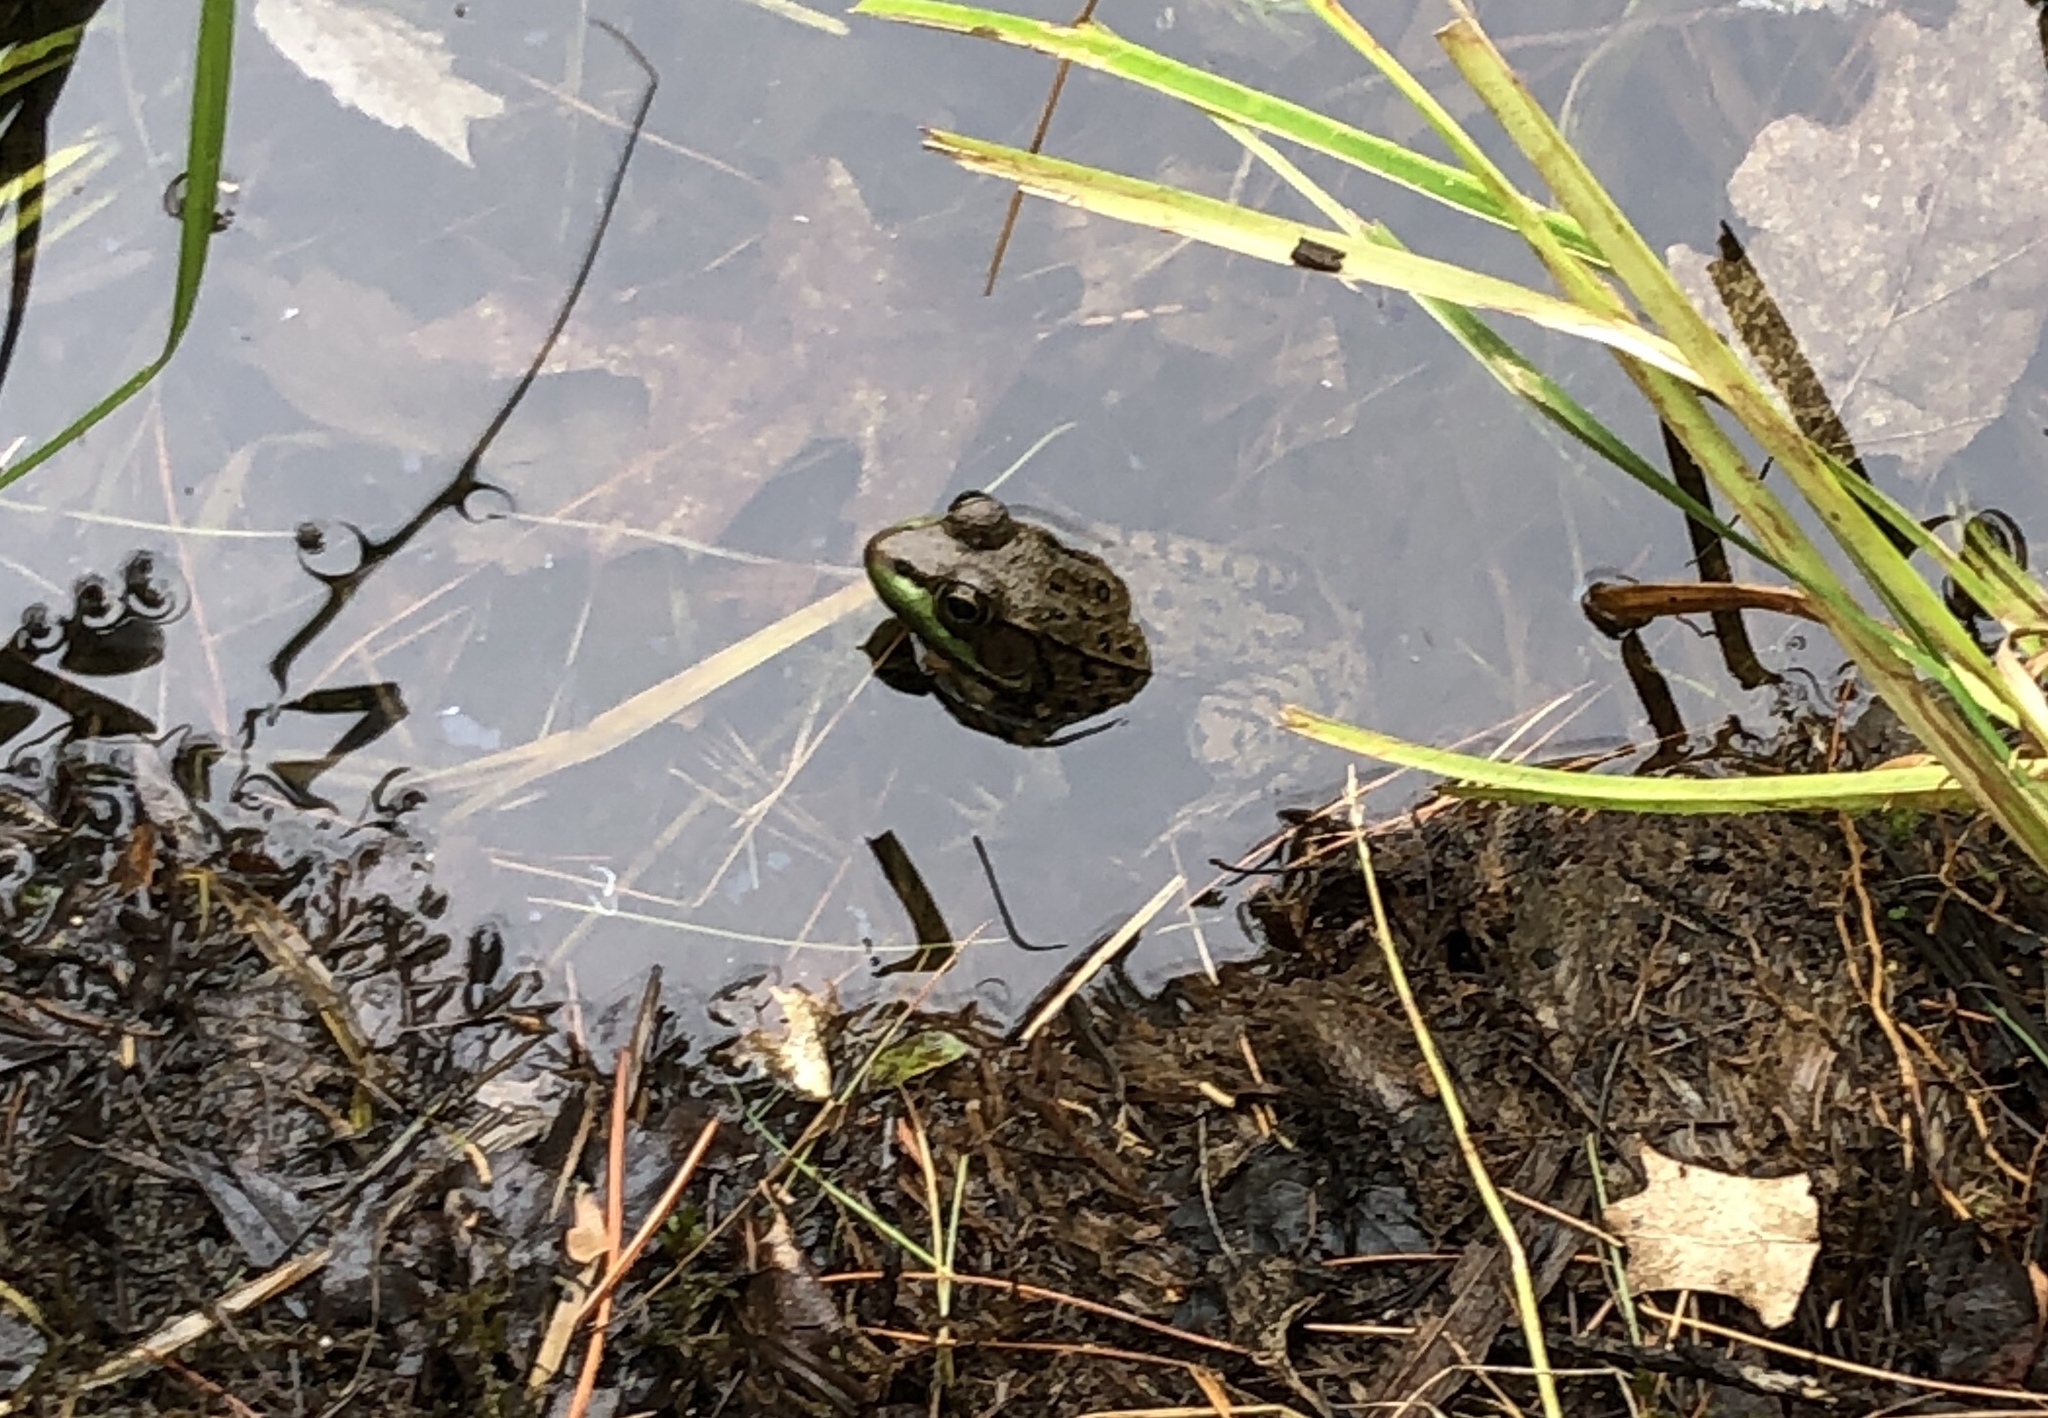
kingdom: Animalia
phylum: Chordata
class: Amphibia
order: Anura
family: Ranidae
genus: Lithobates
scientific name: Lithobates clamitans
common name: Green frog
